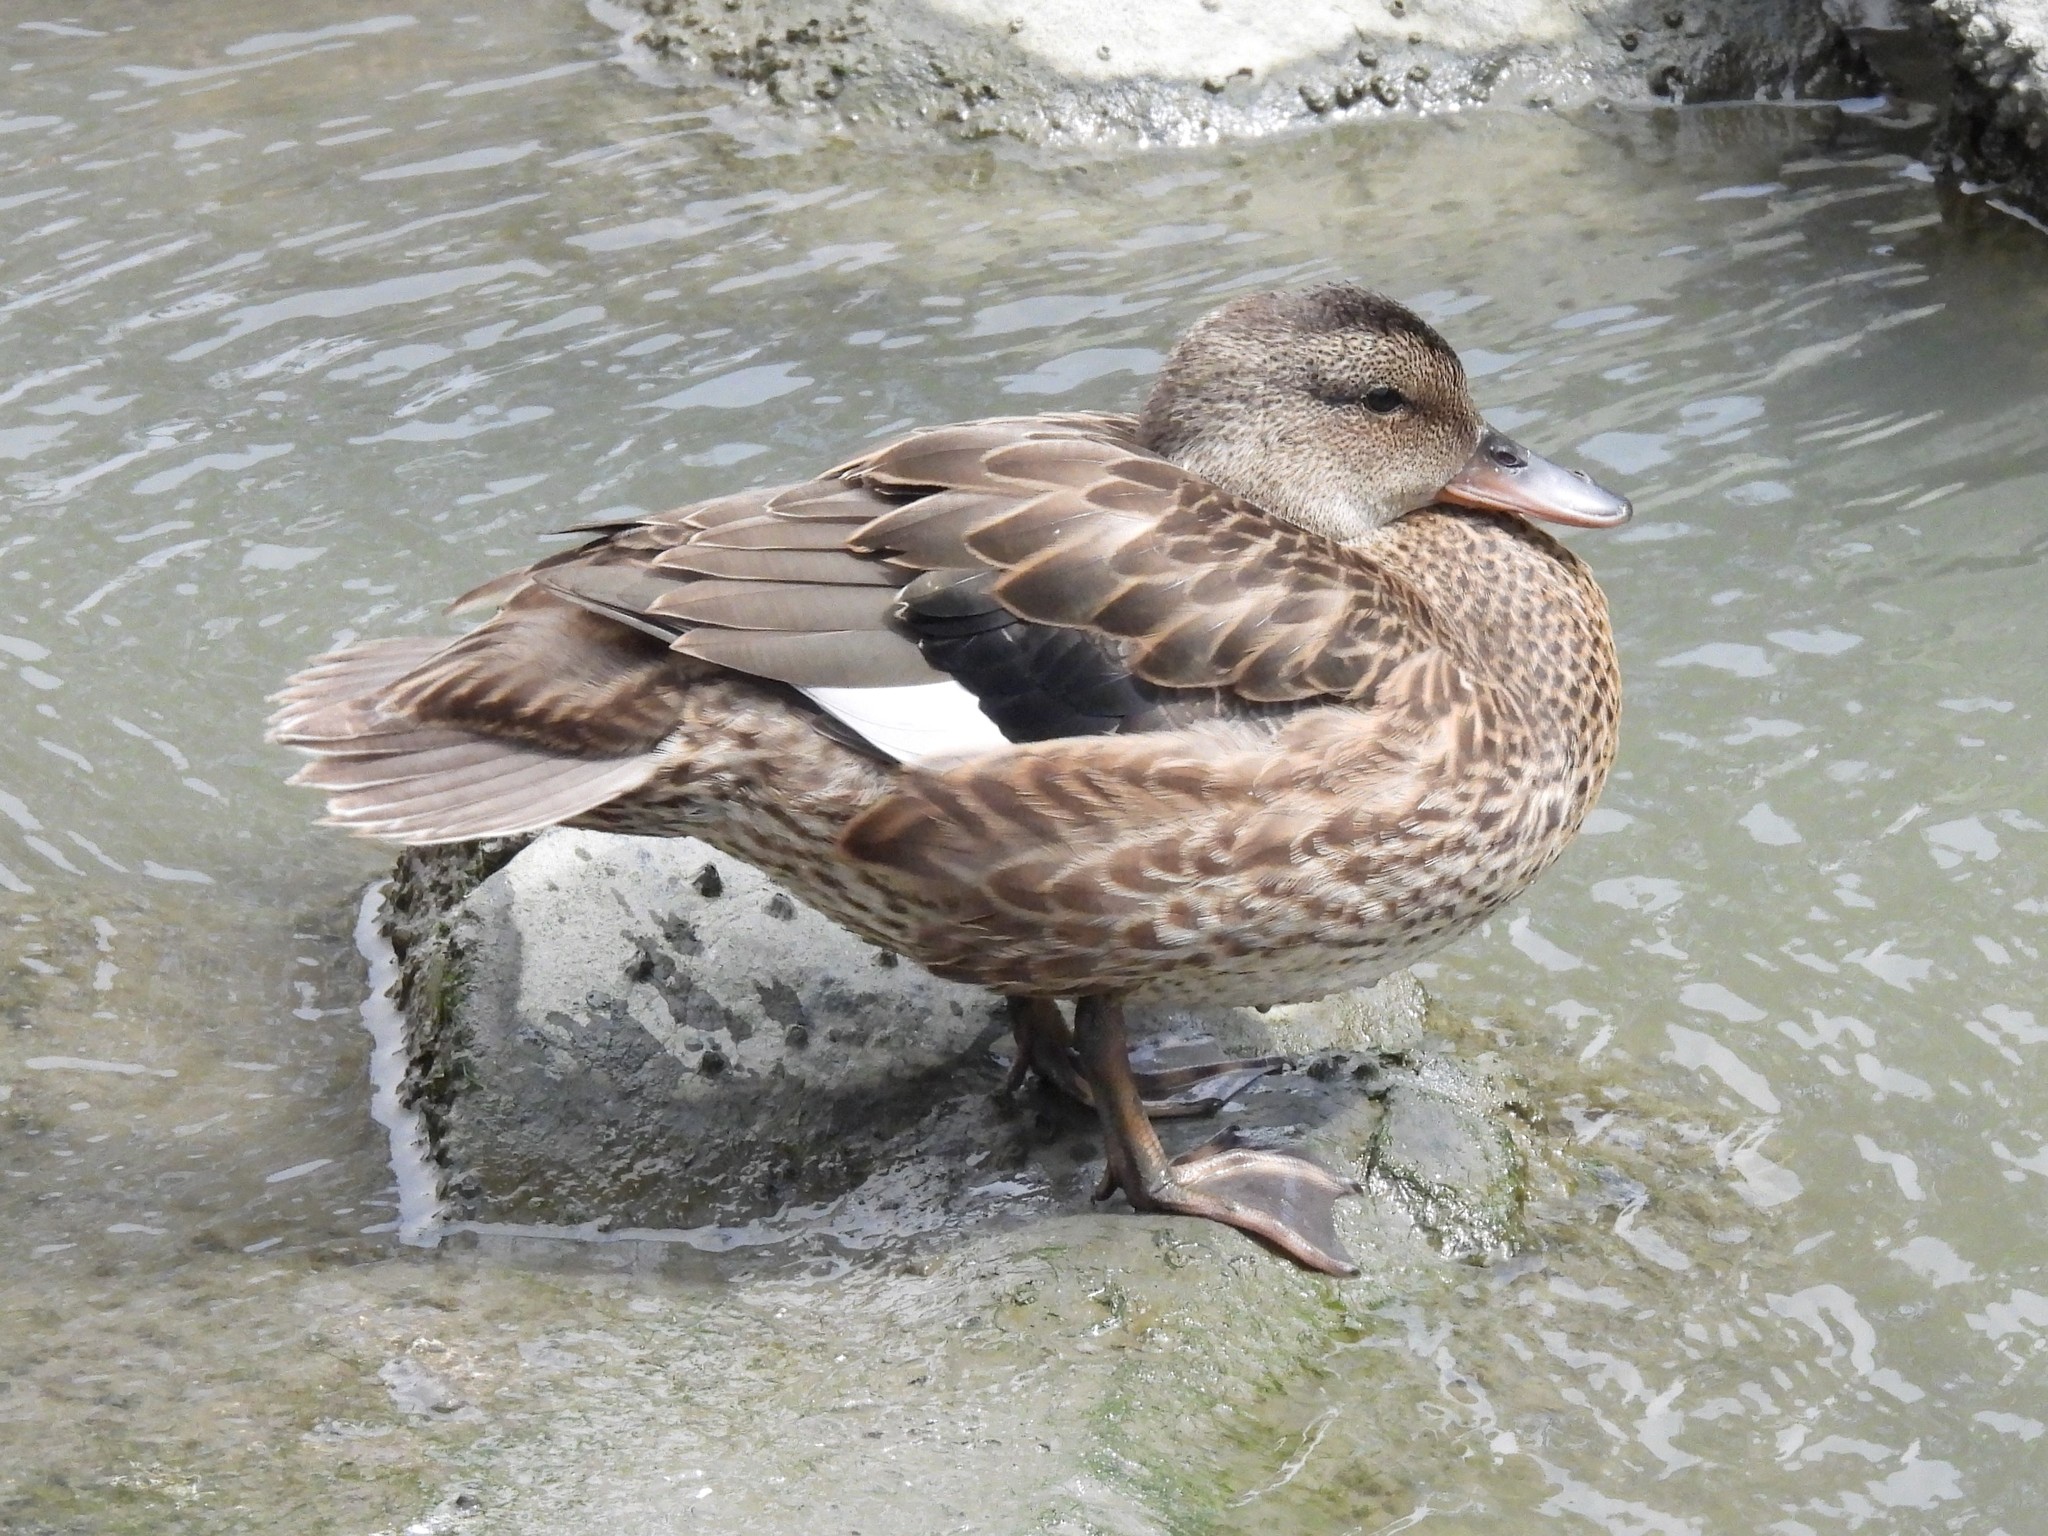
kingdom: Animalia
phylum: Chordata
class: Aves
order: Anseriformes
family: Anatidae
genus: Mareca
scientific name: Mareca strepera
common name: Gadwall
